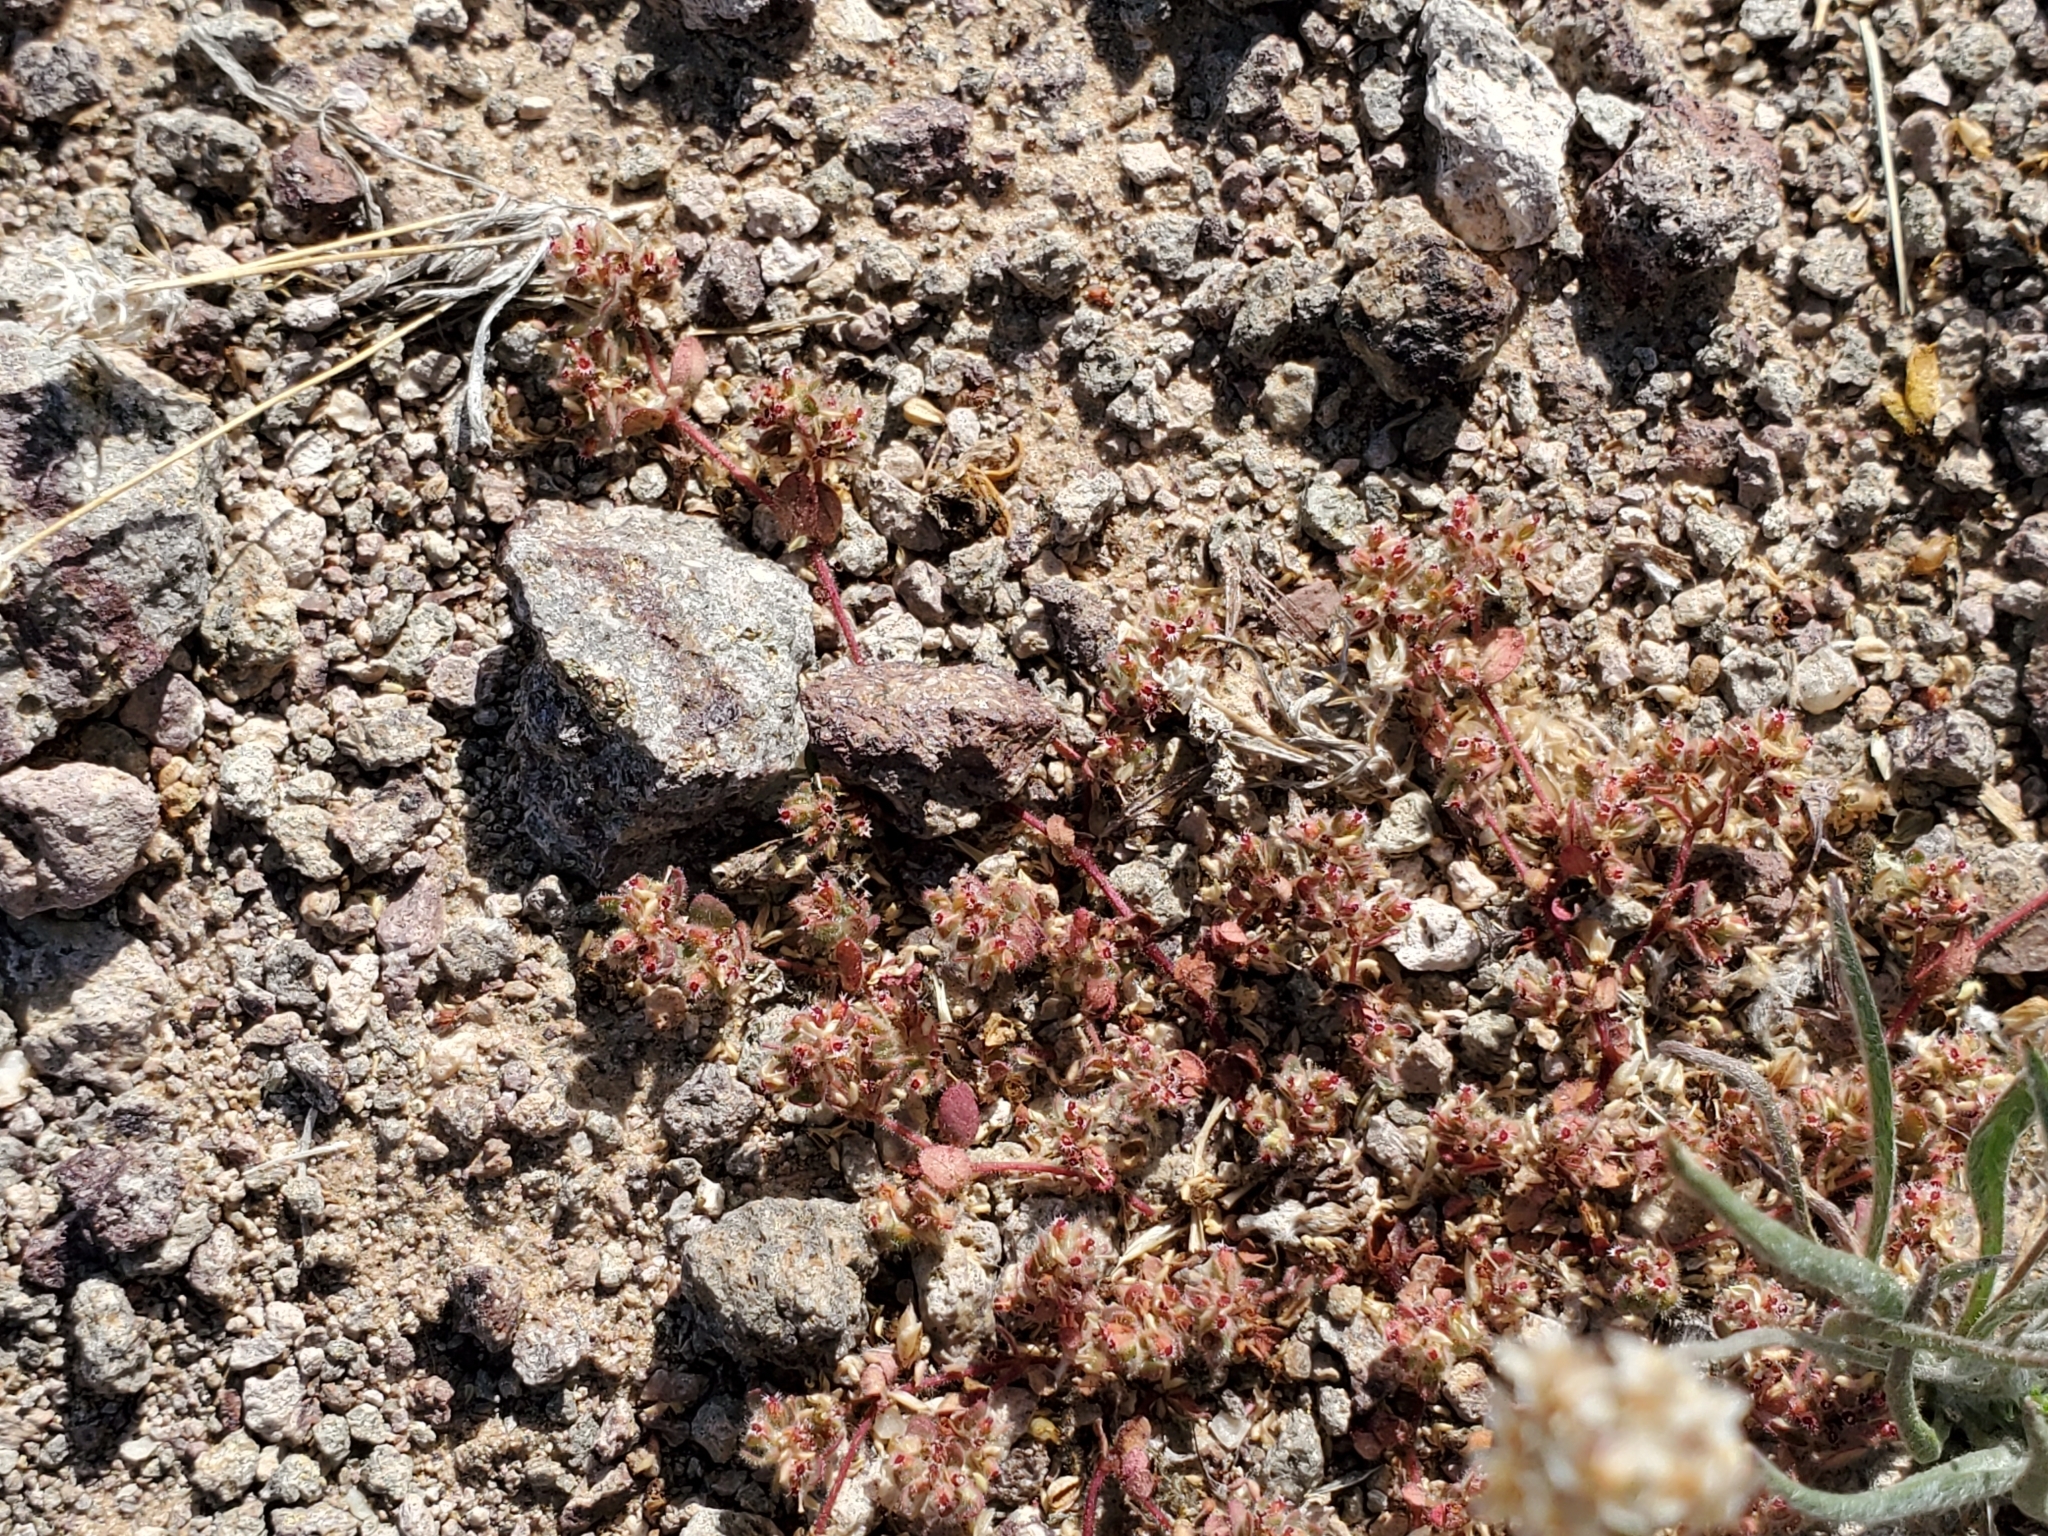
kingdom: Plantae
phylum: Tracheophyta
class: Magnoliopsida
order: Malpighiales
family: Euphorbiaceae
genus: Euphorbia
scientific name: Euphorbia setiloba
